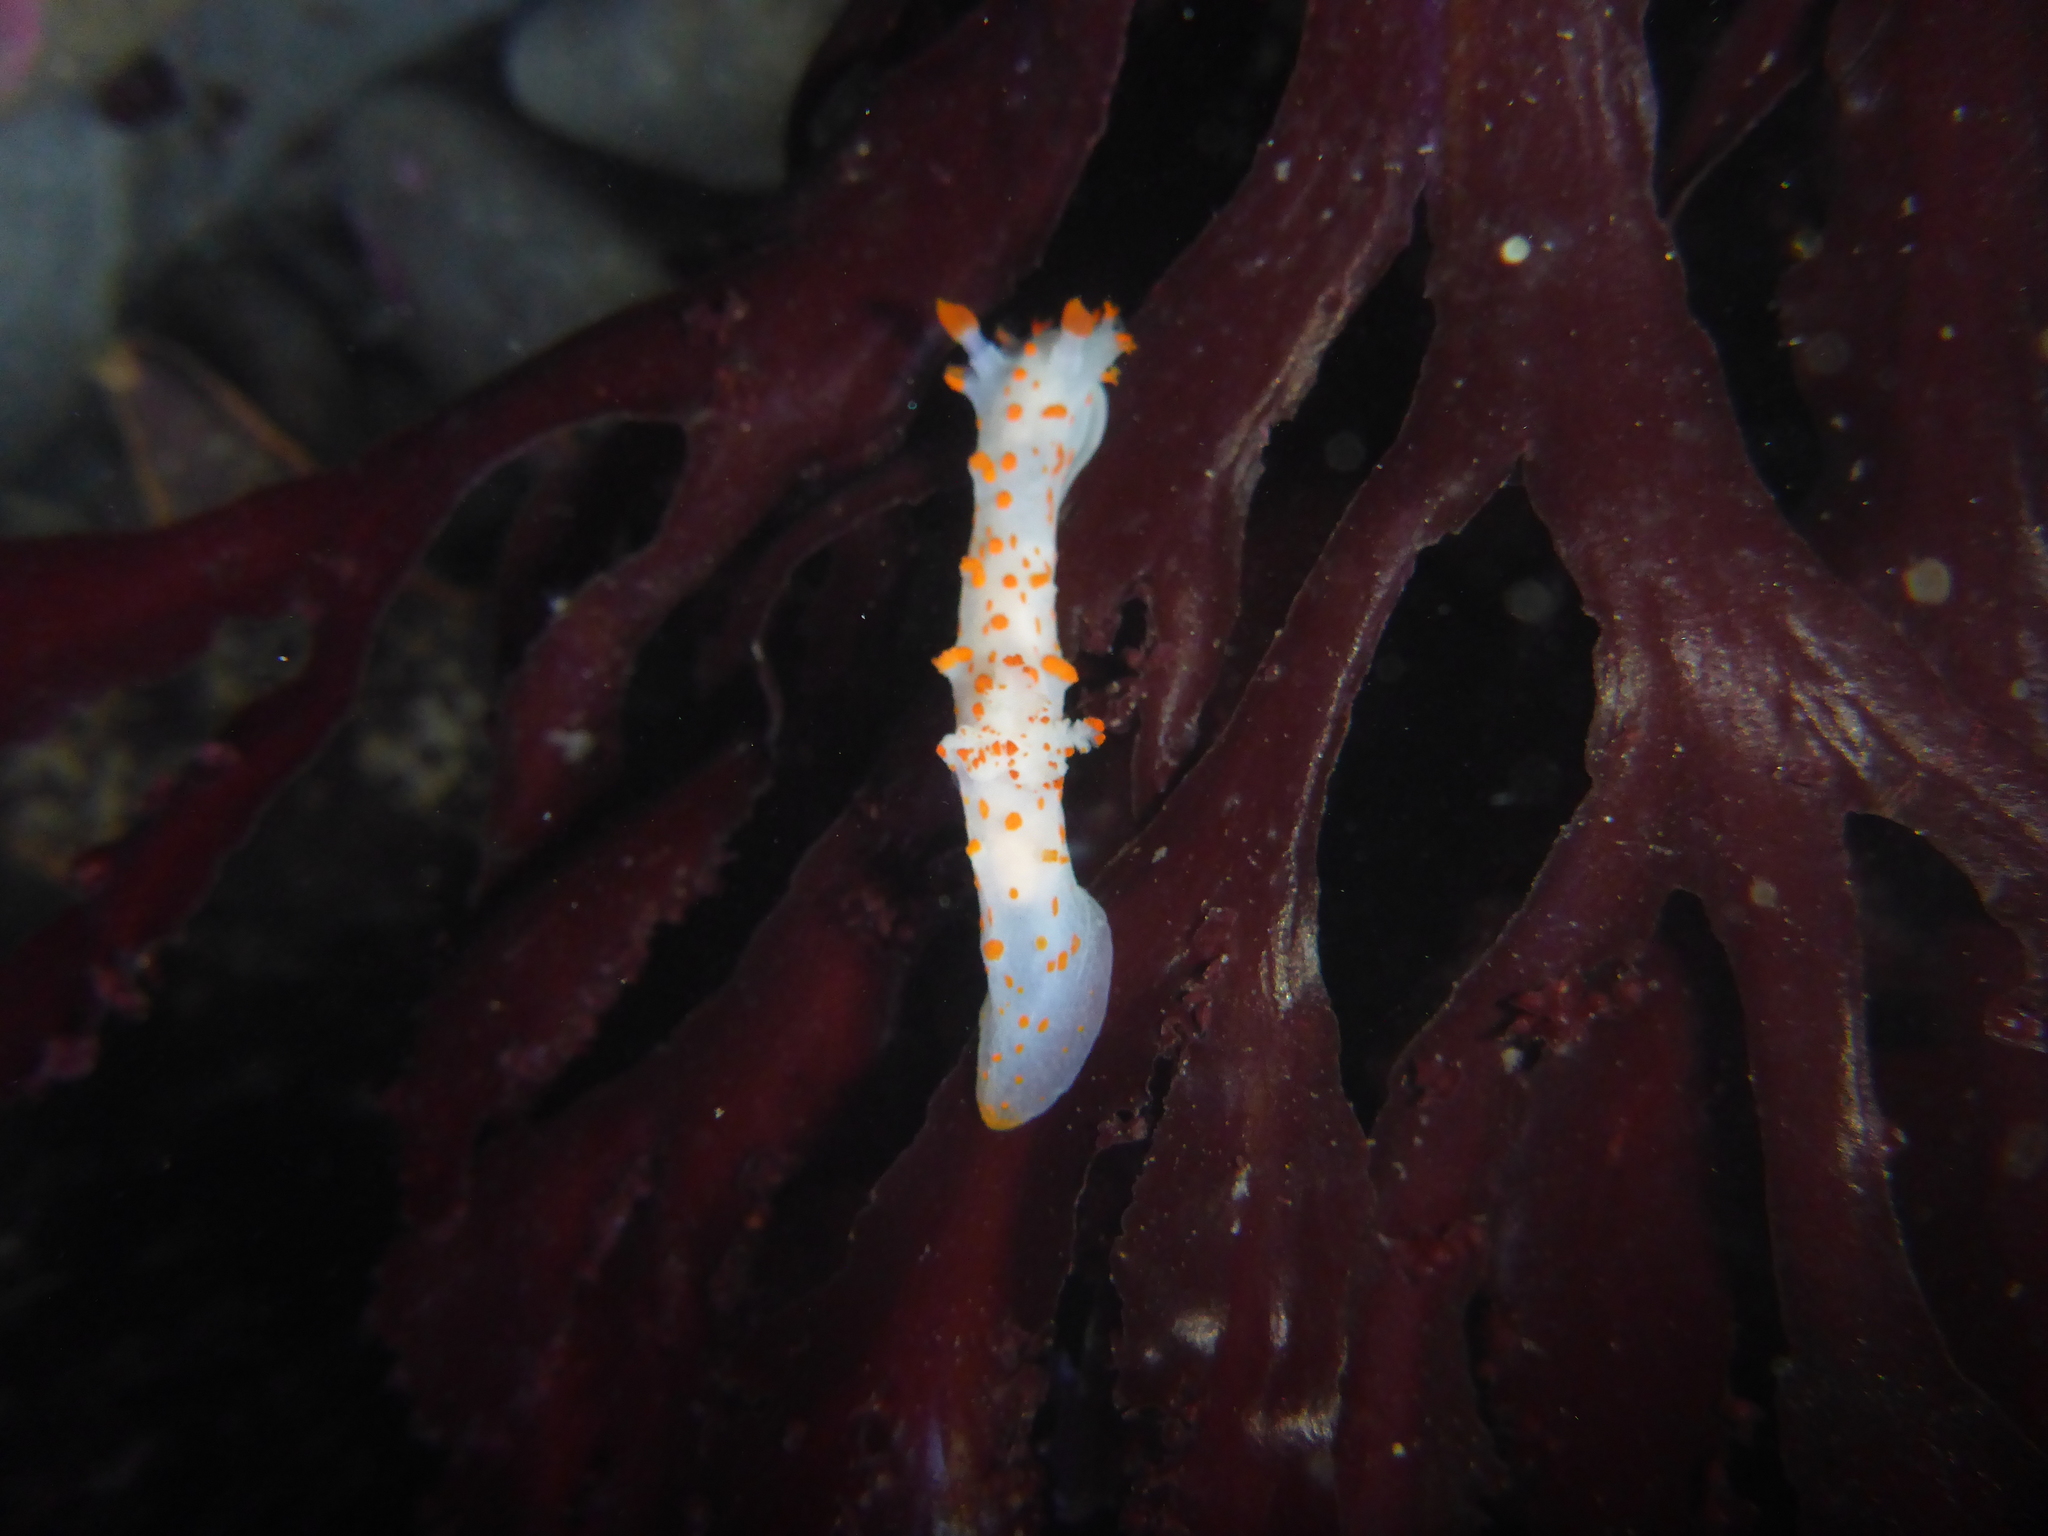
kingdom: Animalia
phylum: Mollusca
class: Gastropoda
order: Nudibranchia
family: Polyceridae
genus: Triopha
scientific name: Triopha catalinae
